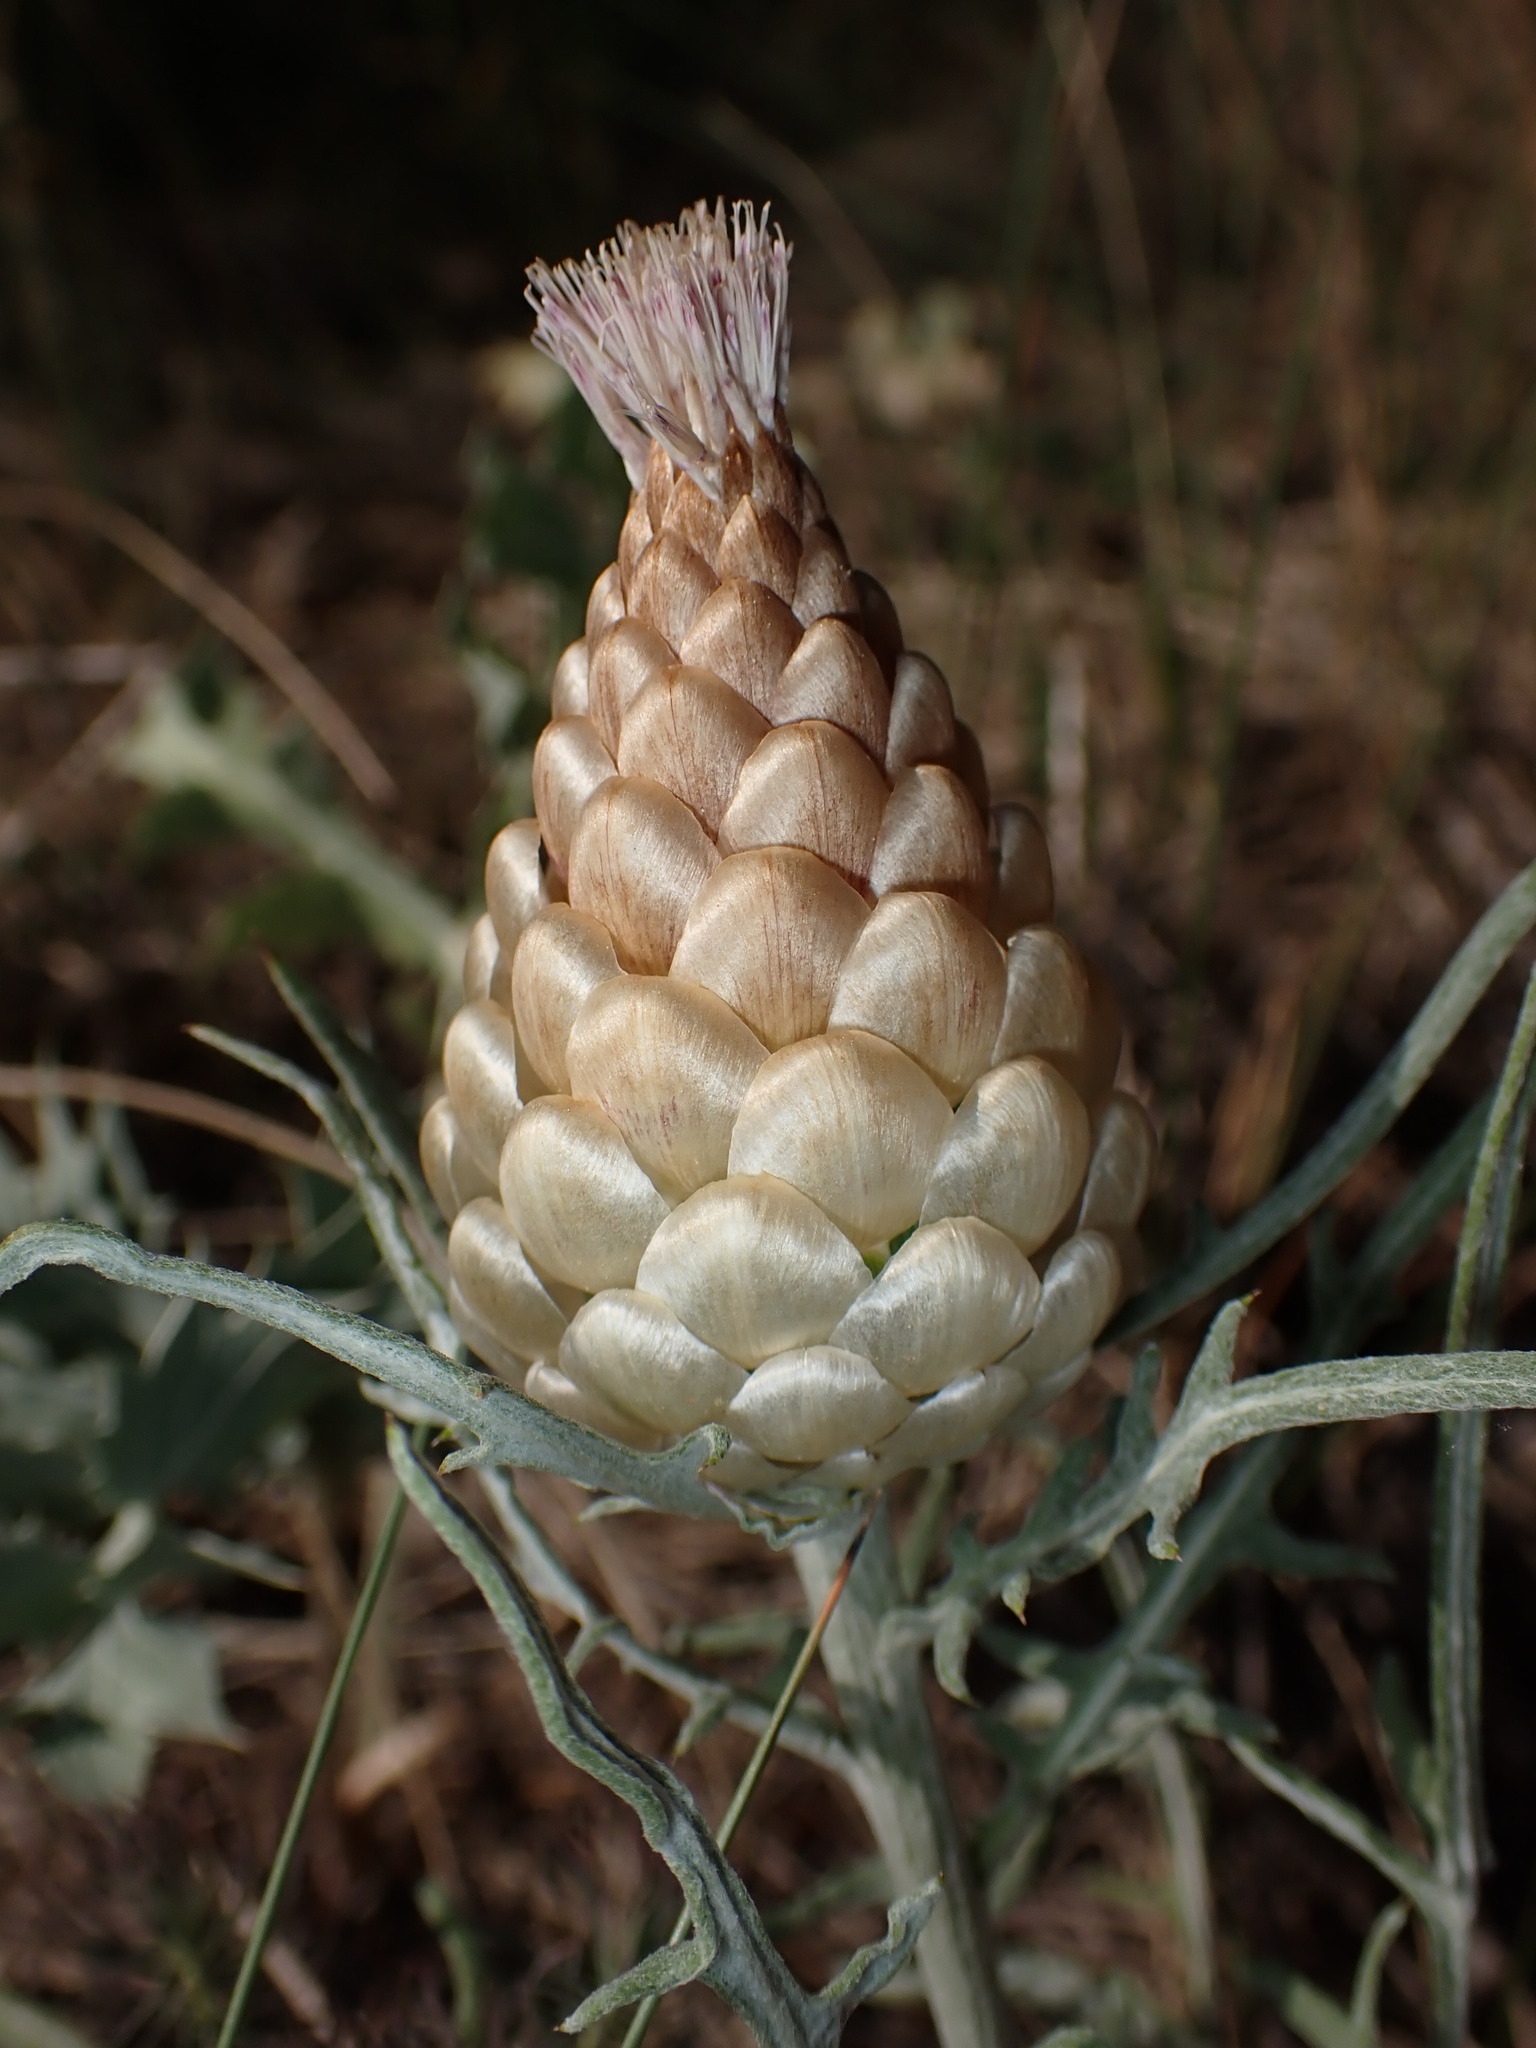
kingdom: Plantae
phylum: Tracheophyta
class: Magnoliopsida
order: Asterales
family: Asteraceae
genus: Leuzea
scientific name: Leuzea conifera
